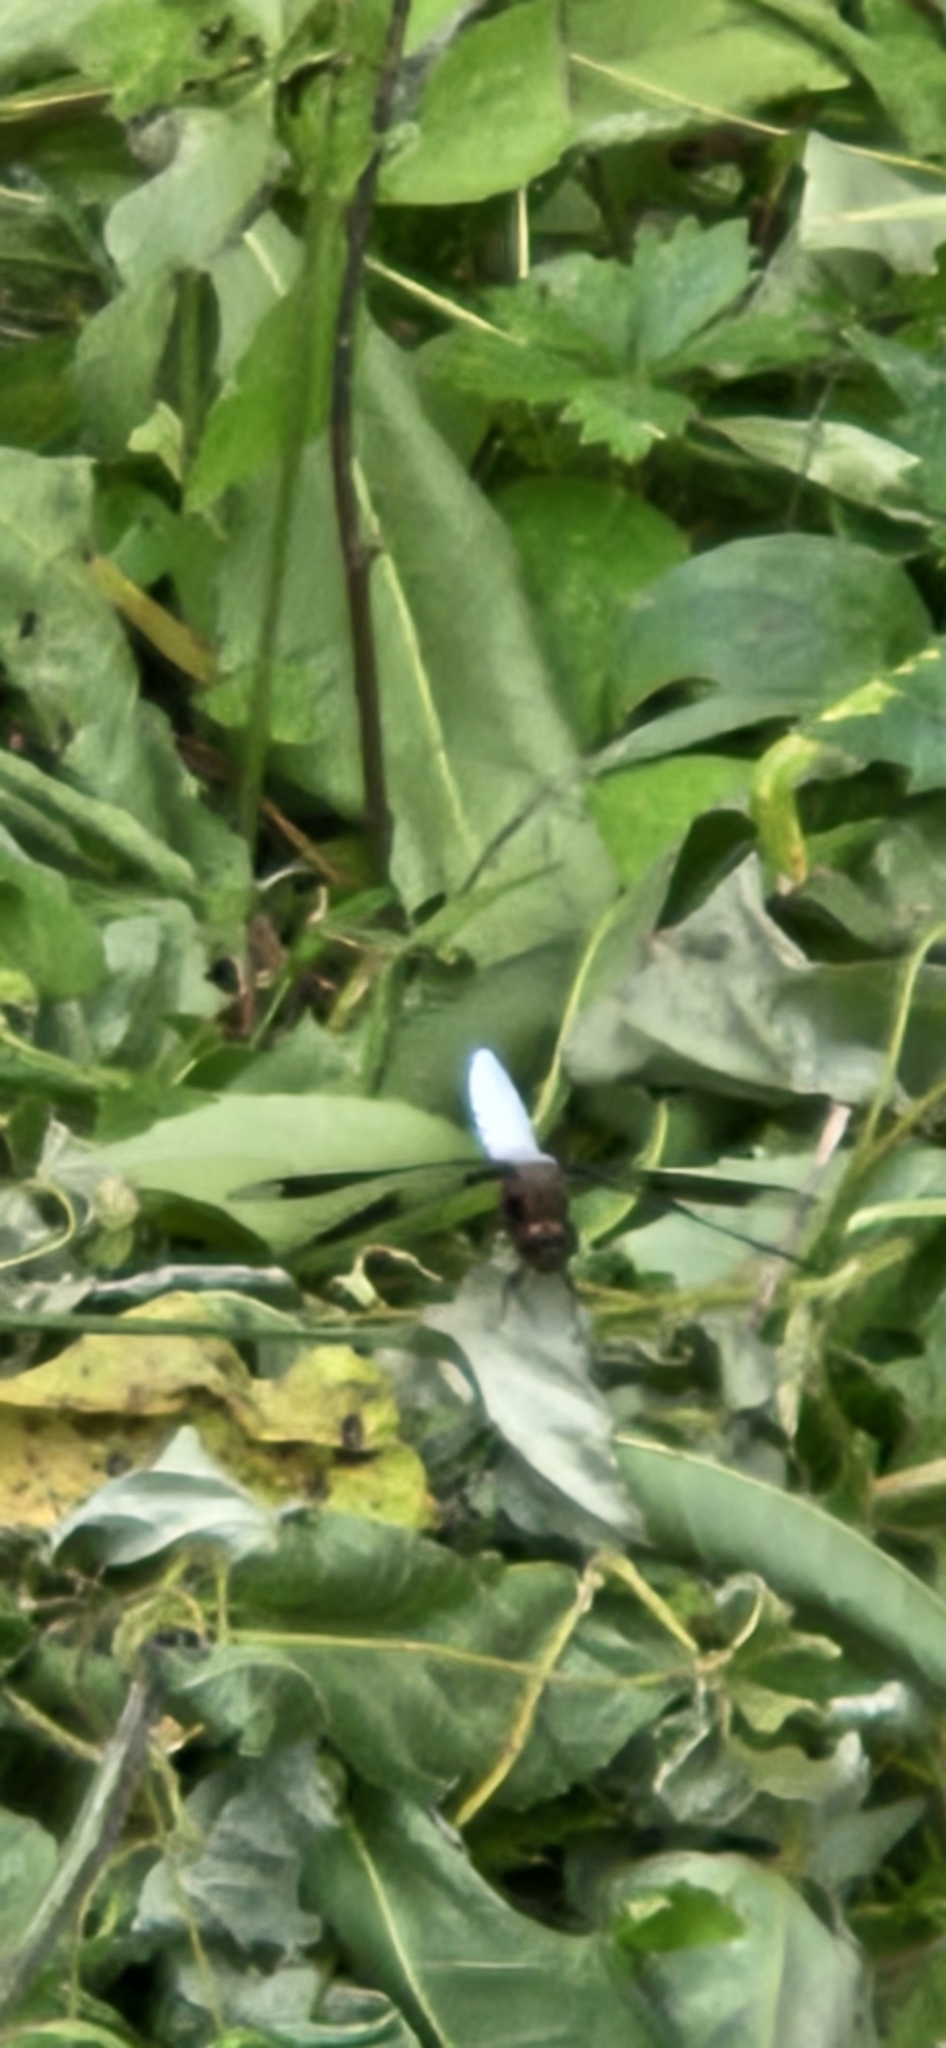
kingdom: Animalia
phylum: Arthropoda
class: Insecta
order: Odonata
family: Libellulidae
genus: Plathemis
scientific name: Plathemis lydia
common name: Common whitetail
